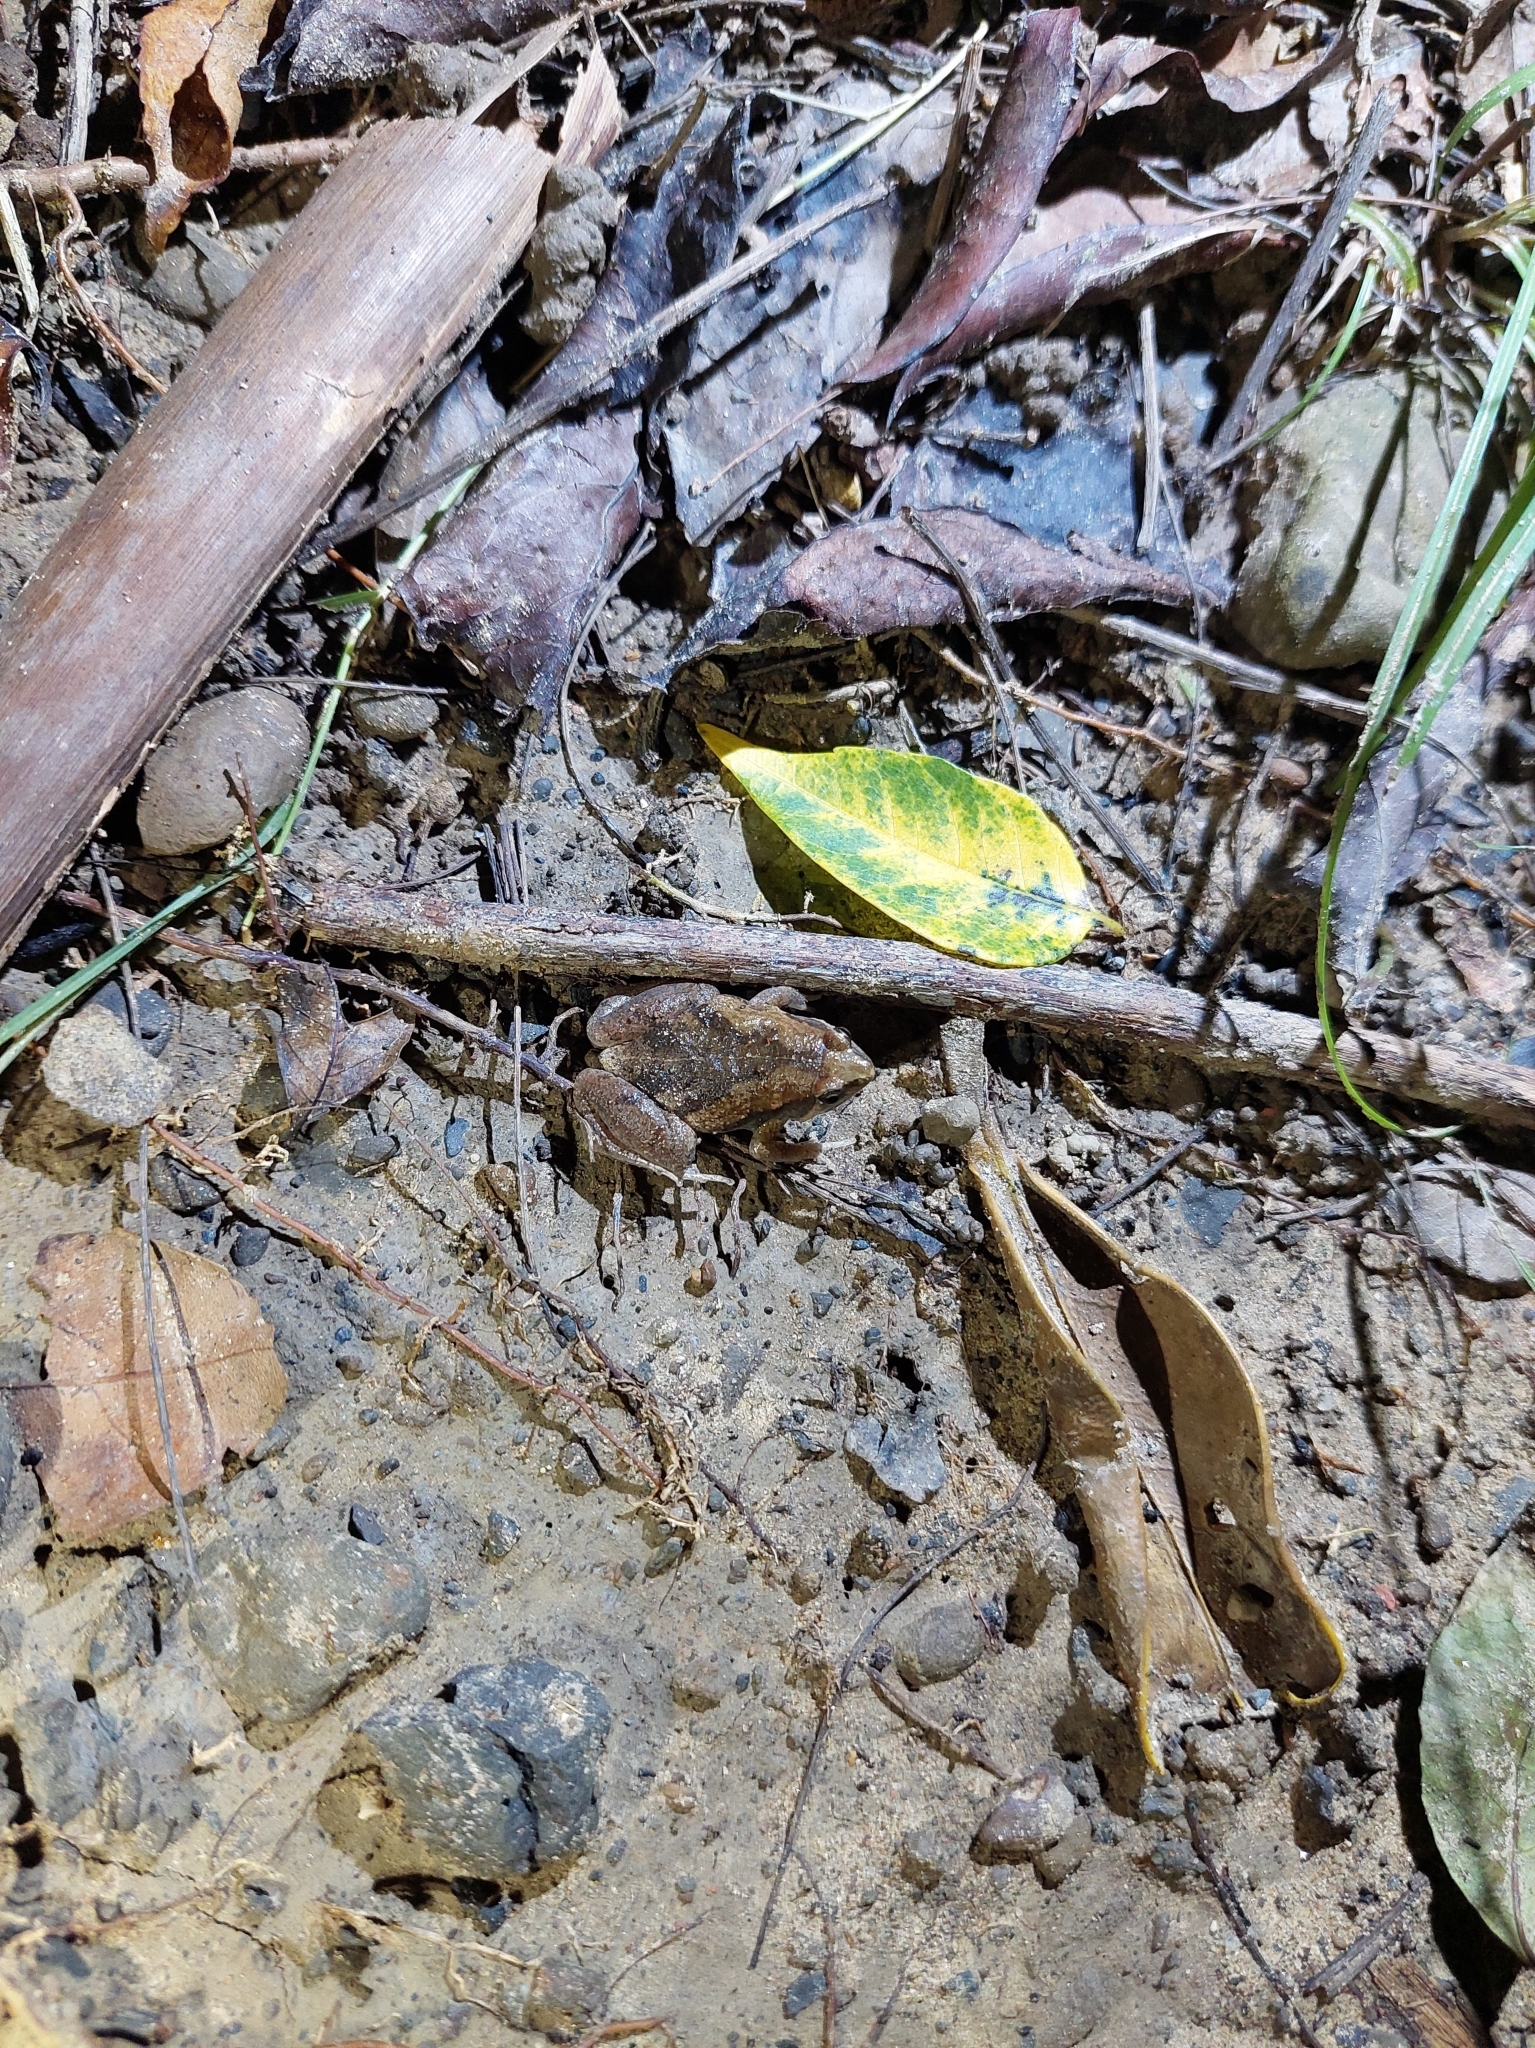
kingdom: Animalia
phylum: Chordata
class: Amphibia
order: Anura
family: Microhylidae
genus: Microhyla
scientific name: Microhyla fissipes
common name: Ornate narrow-mouthed frog
